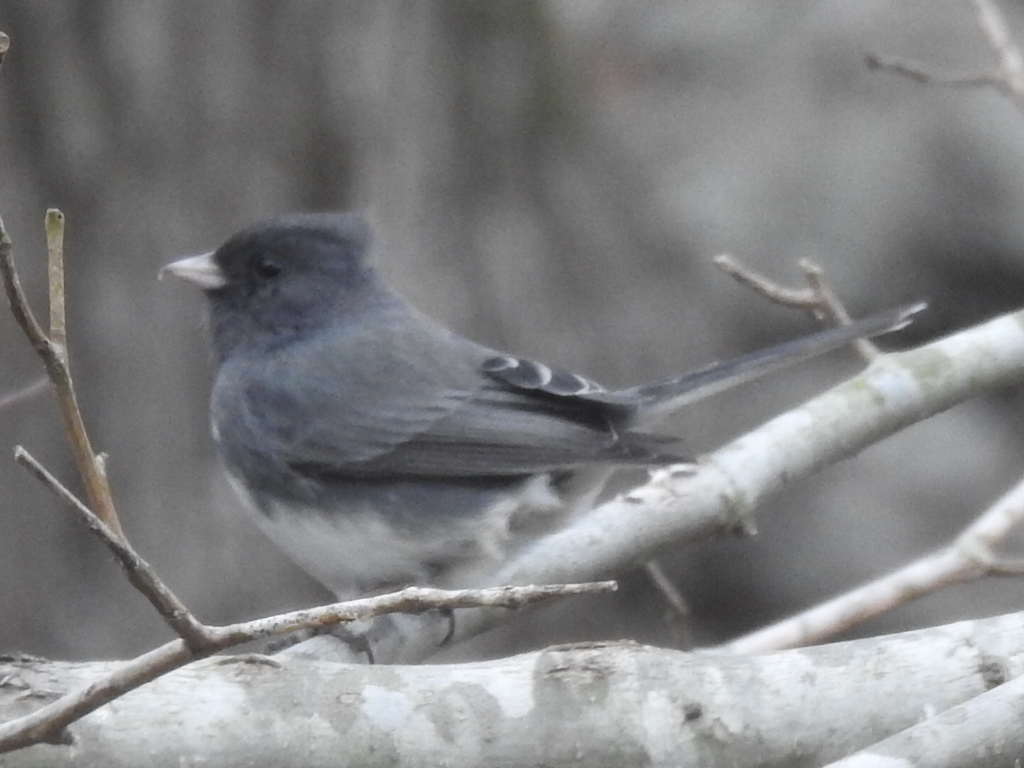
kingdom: Animalia
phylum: Chordata
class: Aves
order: Passeriformes
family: Passerellidae
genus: Junco
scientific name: Junco hyemalis
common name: Dark-eyed junco
